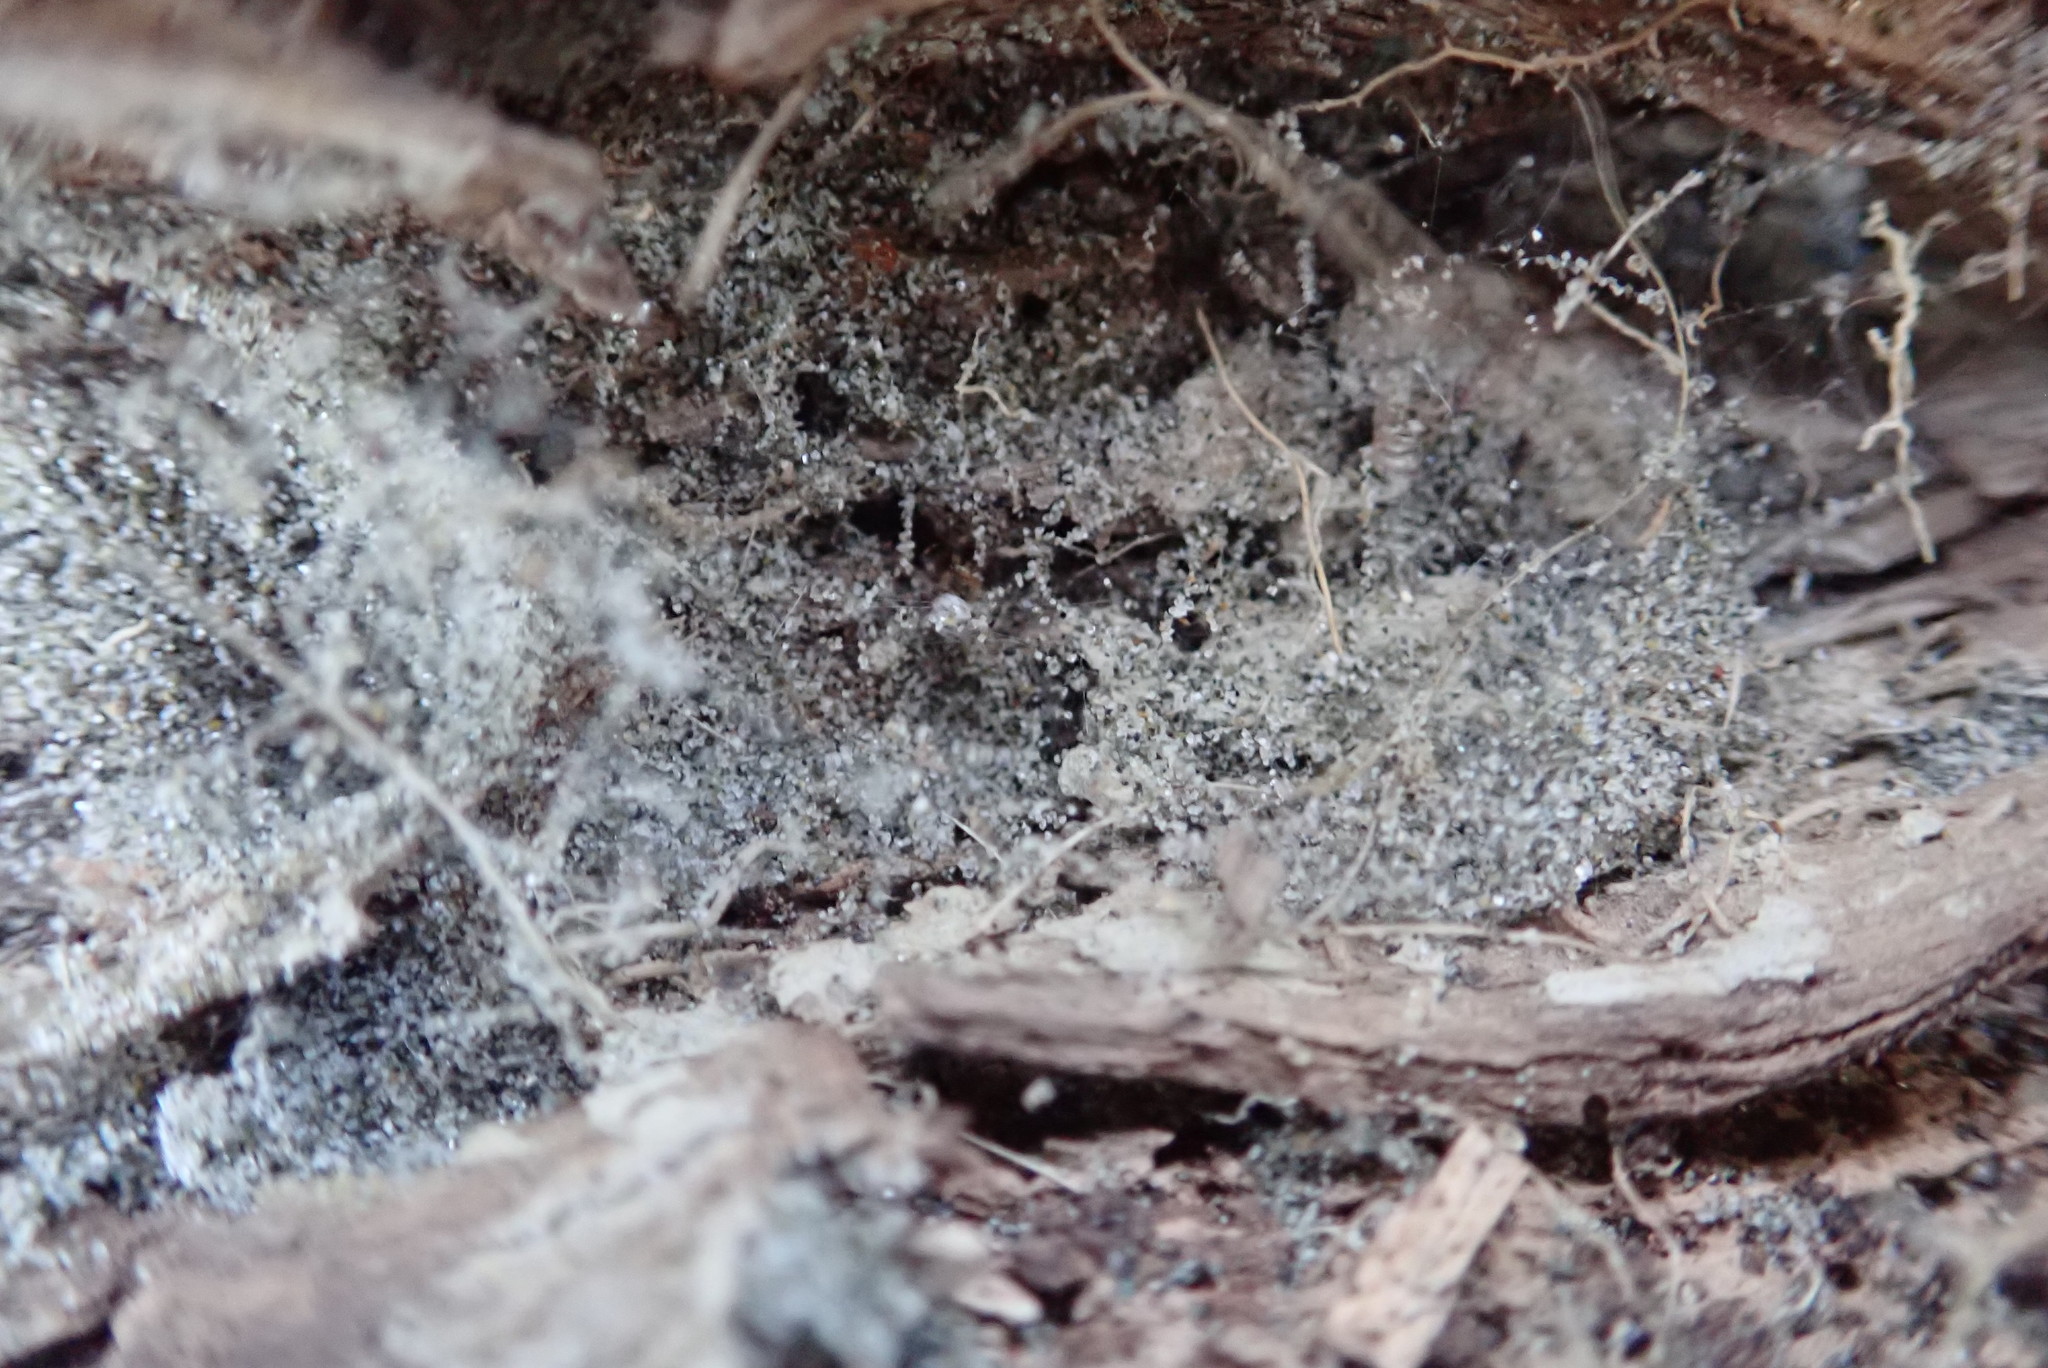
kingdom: Animalia
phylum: Arthropoda
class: Arachnida
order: Araneae
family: Theridiidae
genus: Latrodectus
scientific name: Latrodectus katipo
